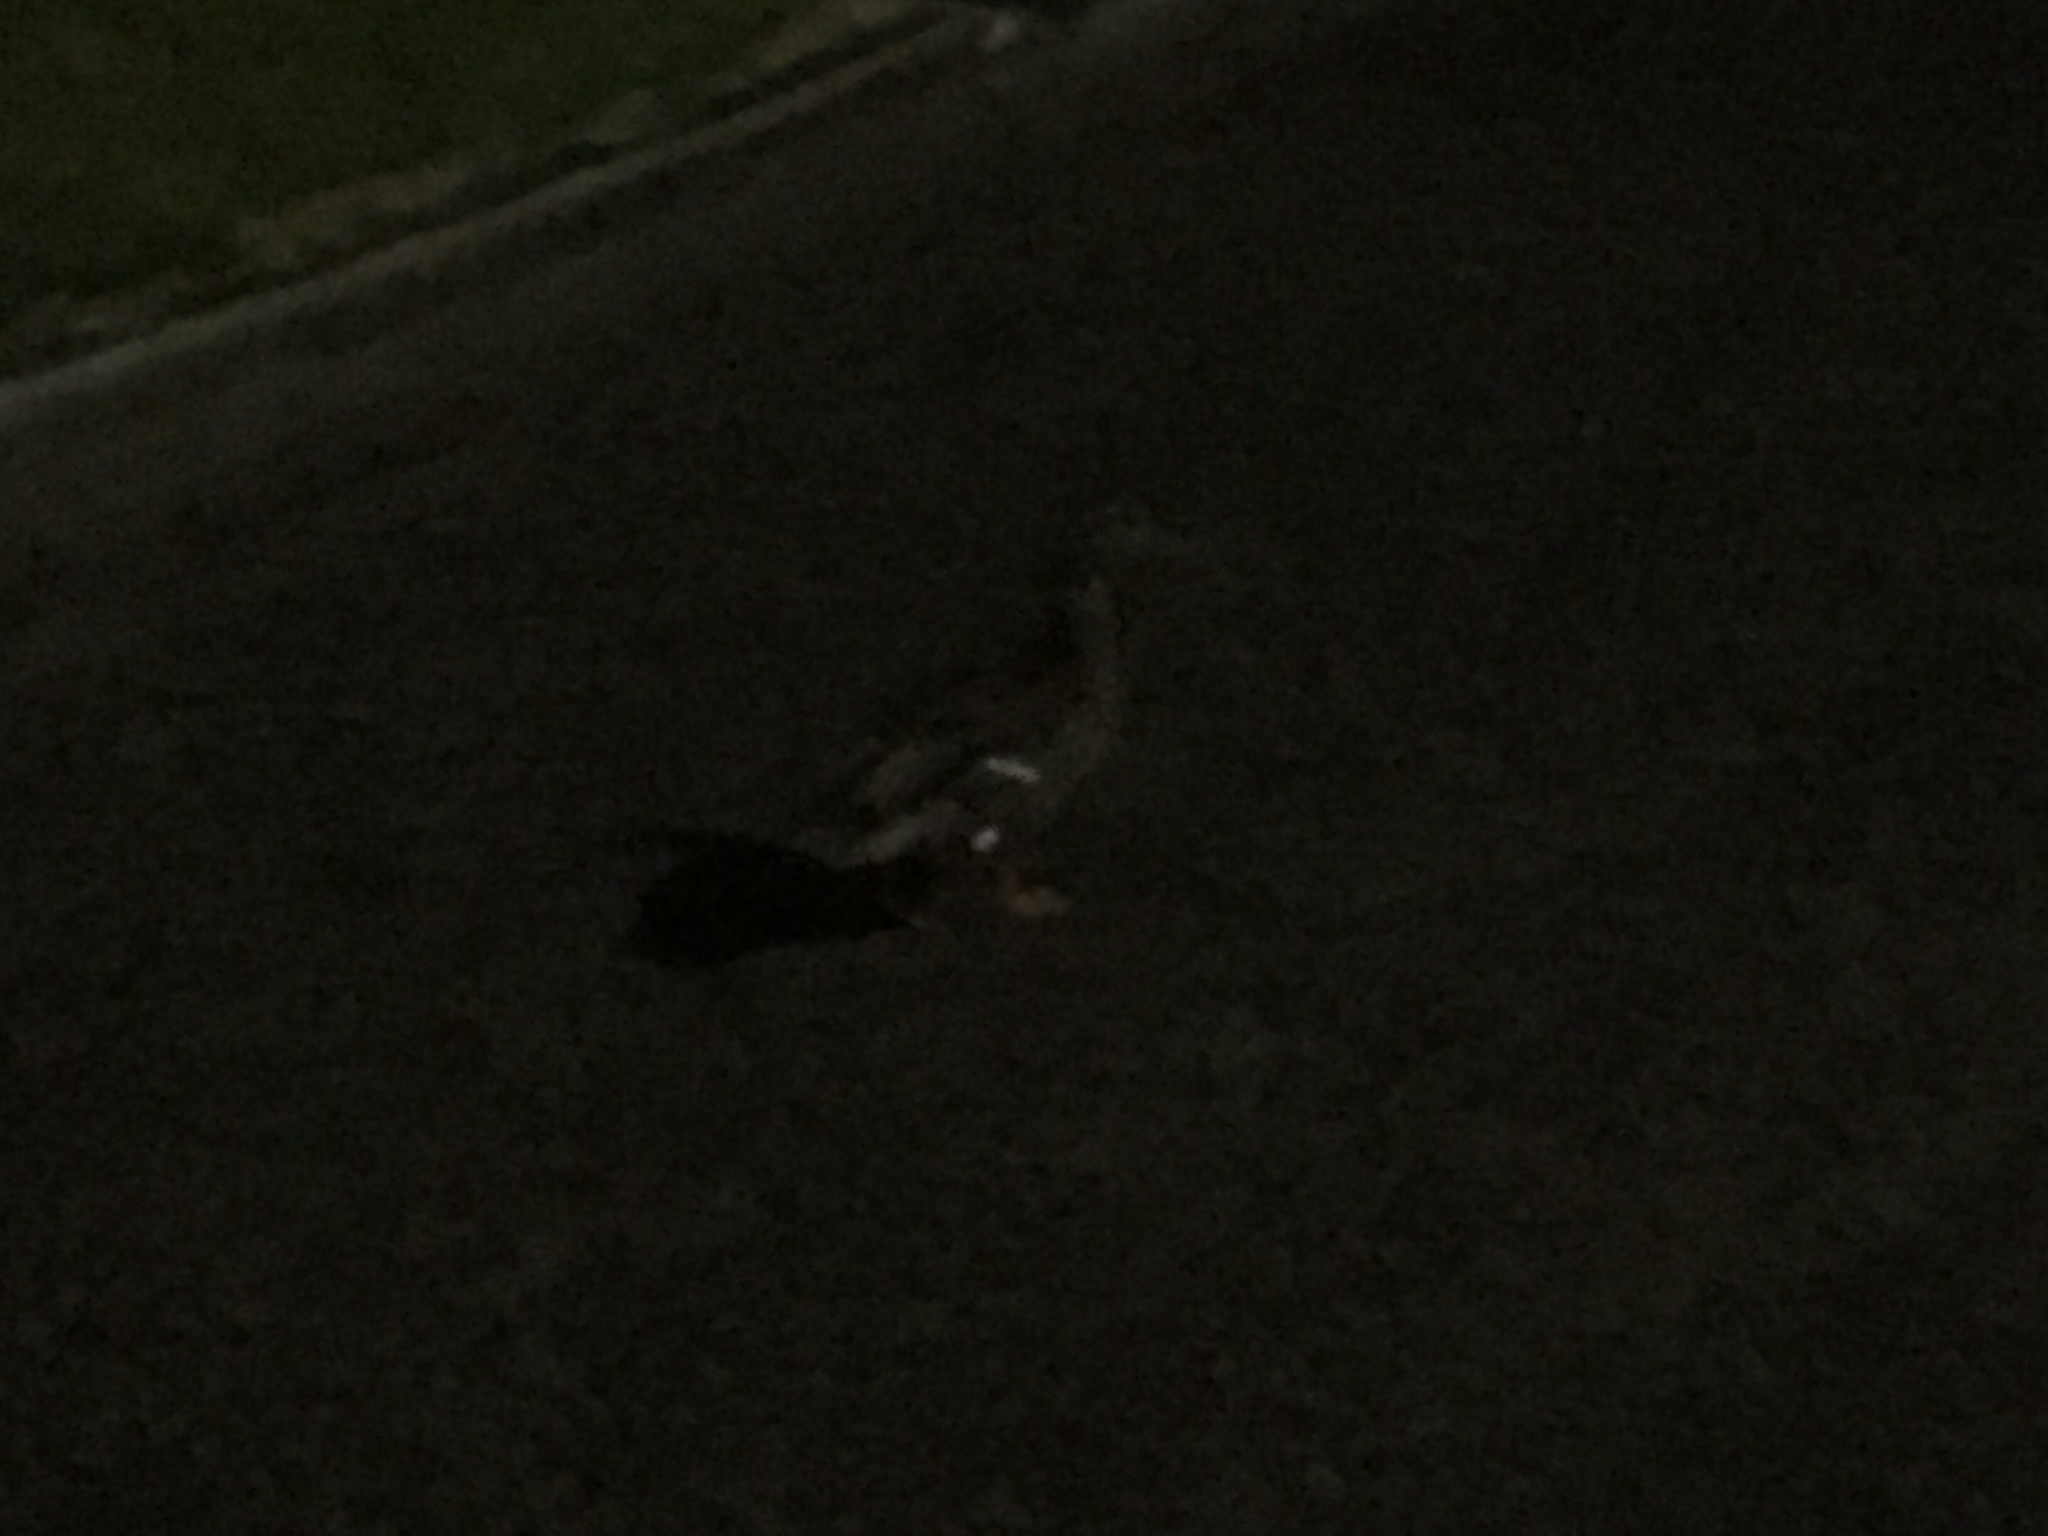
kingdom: Animalia
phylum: Chordata
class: Aves
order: Anseriformes
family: Anatidae
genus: Anas
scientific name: Anas platyrhynchos
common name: Mallard
